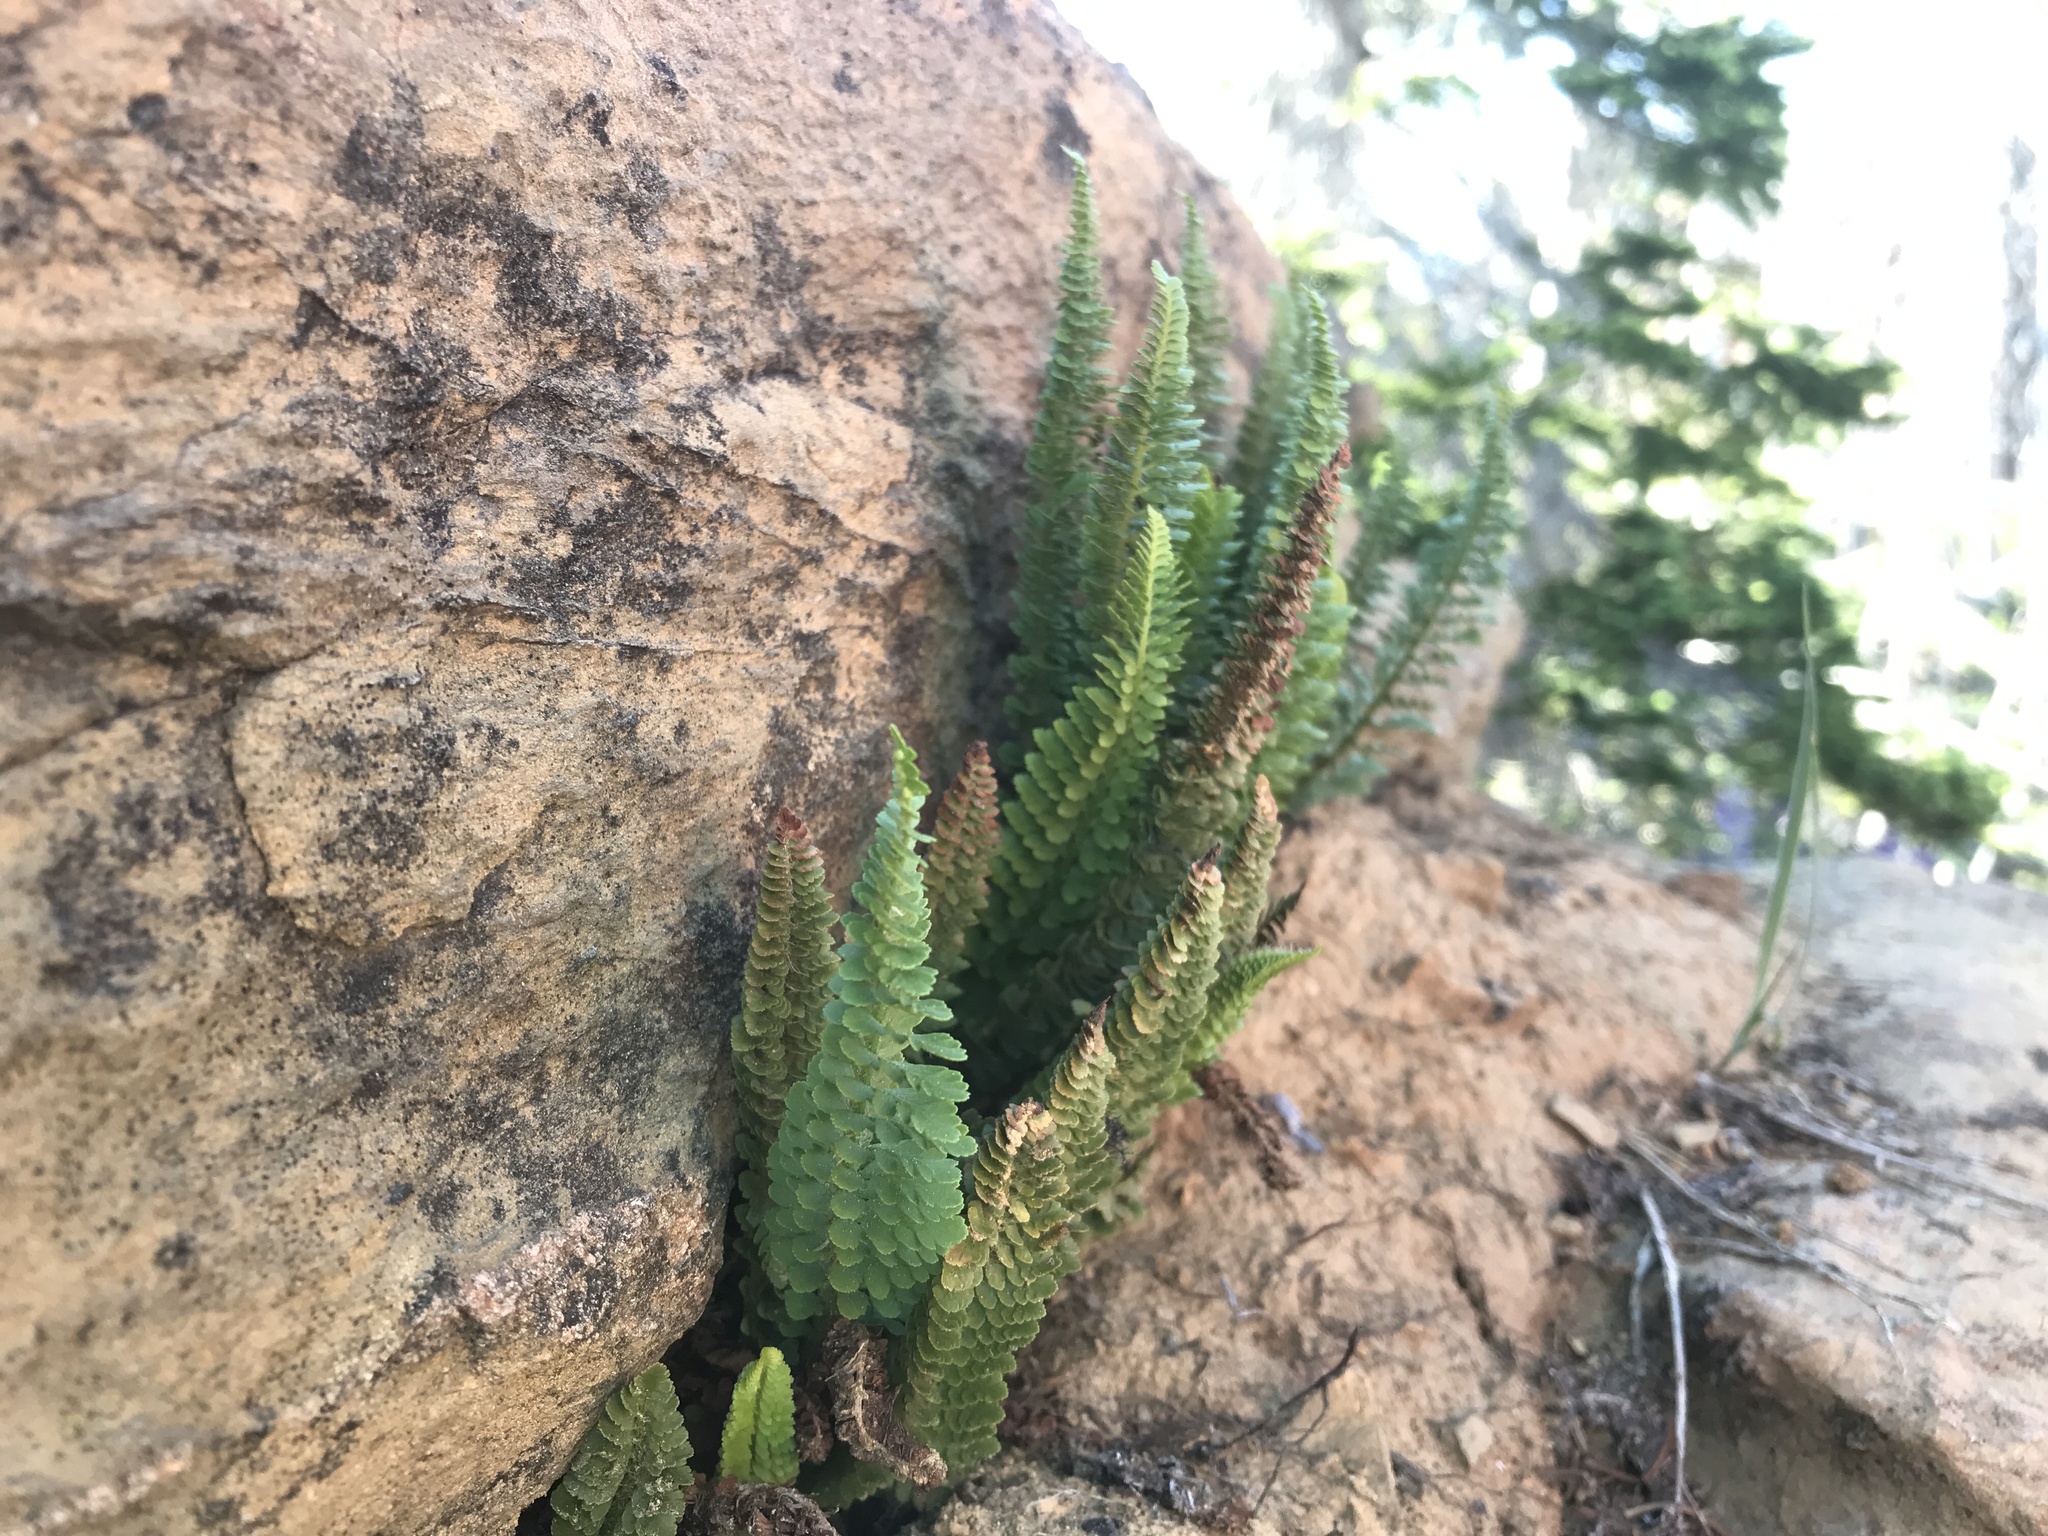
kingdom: Plantae
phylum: Tracheophyta
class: Polypodiopsida
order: Polypodiales
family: Dryopteridaceae
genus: Polystichum
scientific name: Polystichum lemmonii
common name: Lemmon's holly fern
